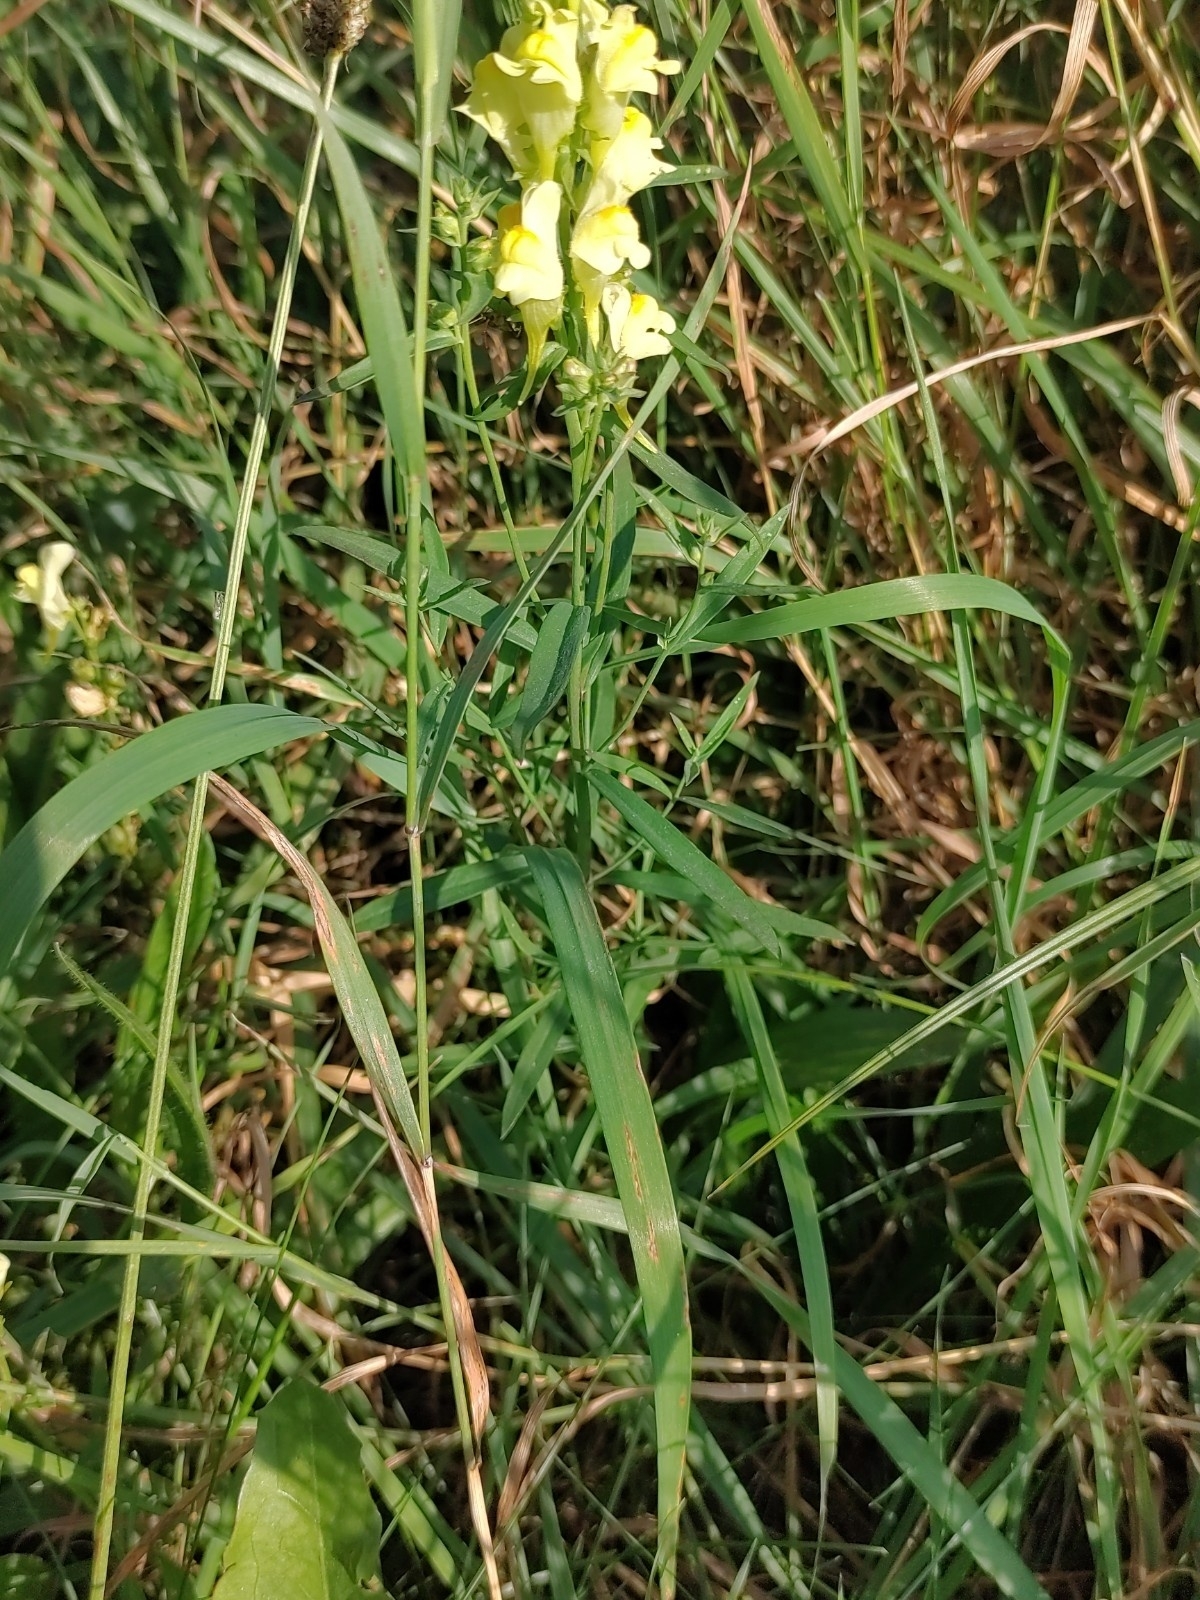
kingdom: Plantae
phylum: Tracheophyta
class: Magnoliopsida
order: Lamiales
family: Plantaginaceae
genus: Linaria
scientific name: Linaria vulgaris
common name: Butter and eggs
